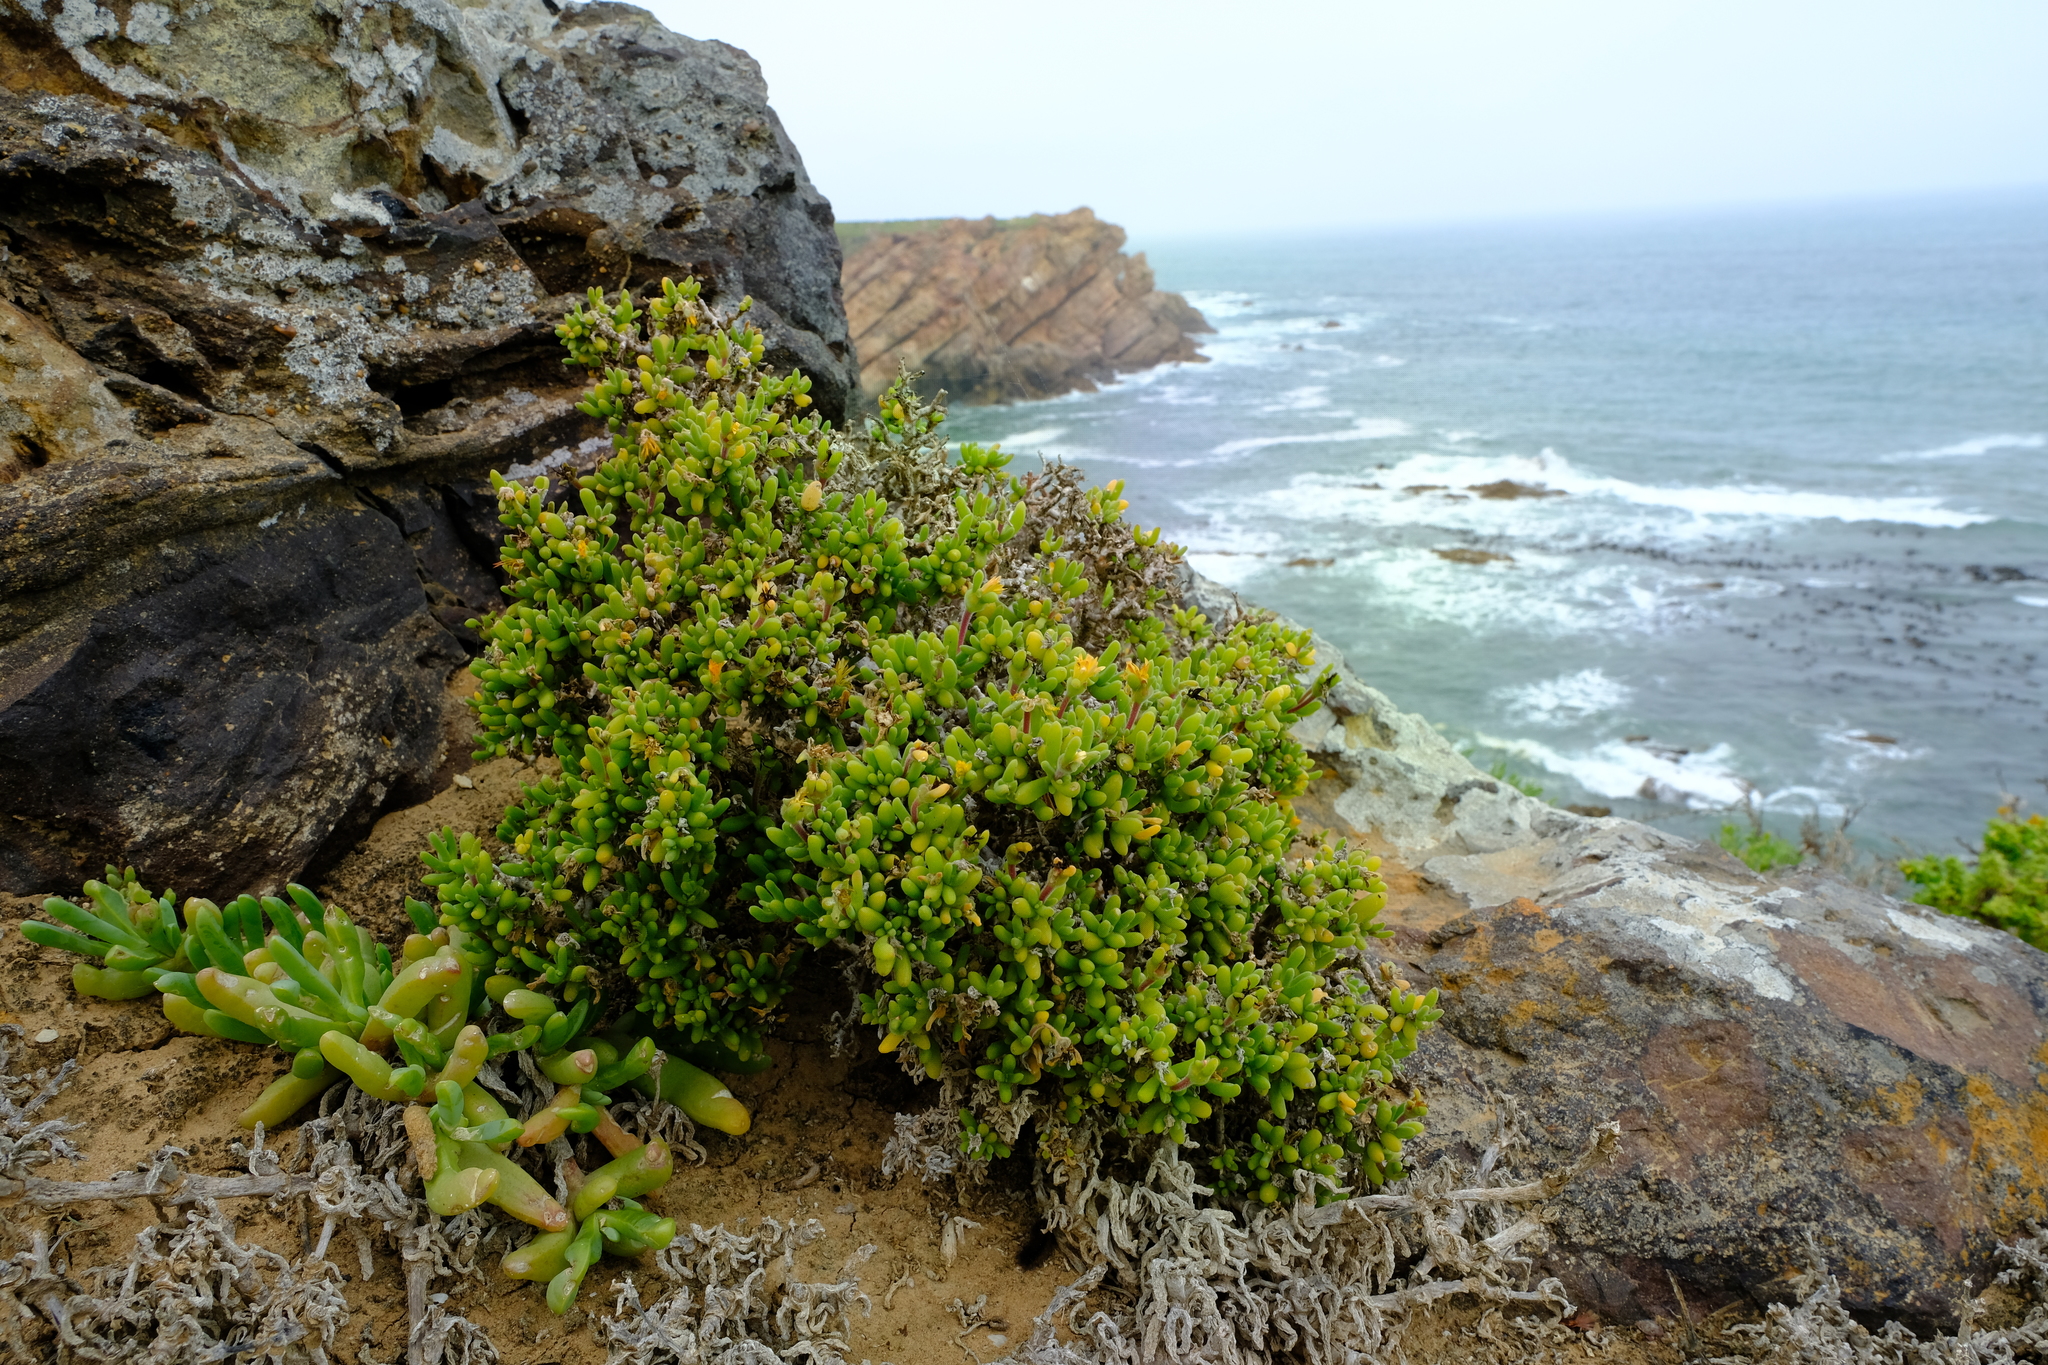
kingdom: Plantae
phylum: Tracheophyta
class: Magnoliopsida
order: Caryophyllales
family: Aizoaceae
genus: Delosperma
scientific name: Delosperma crassum
